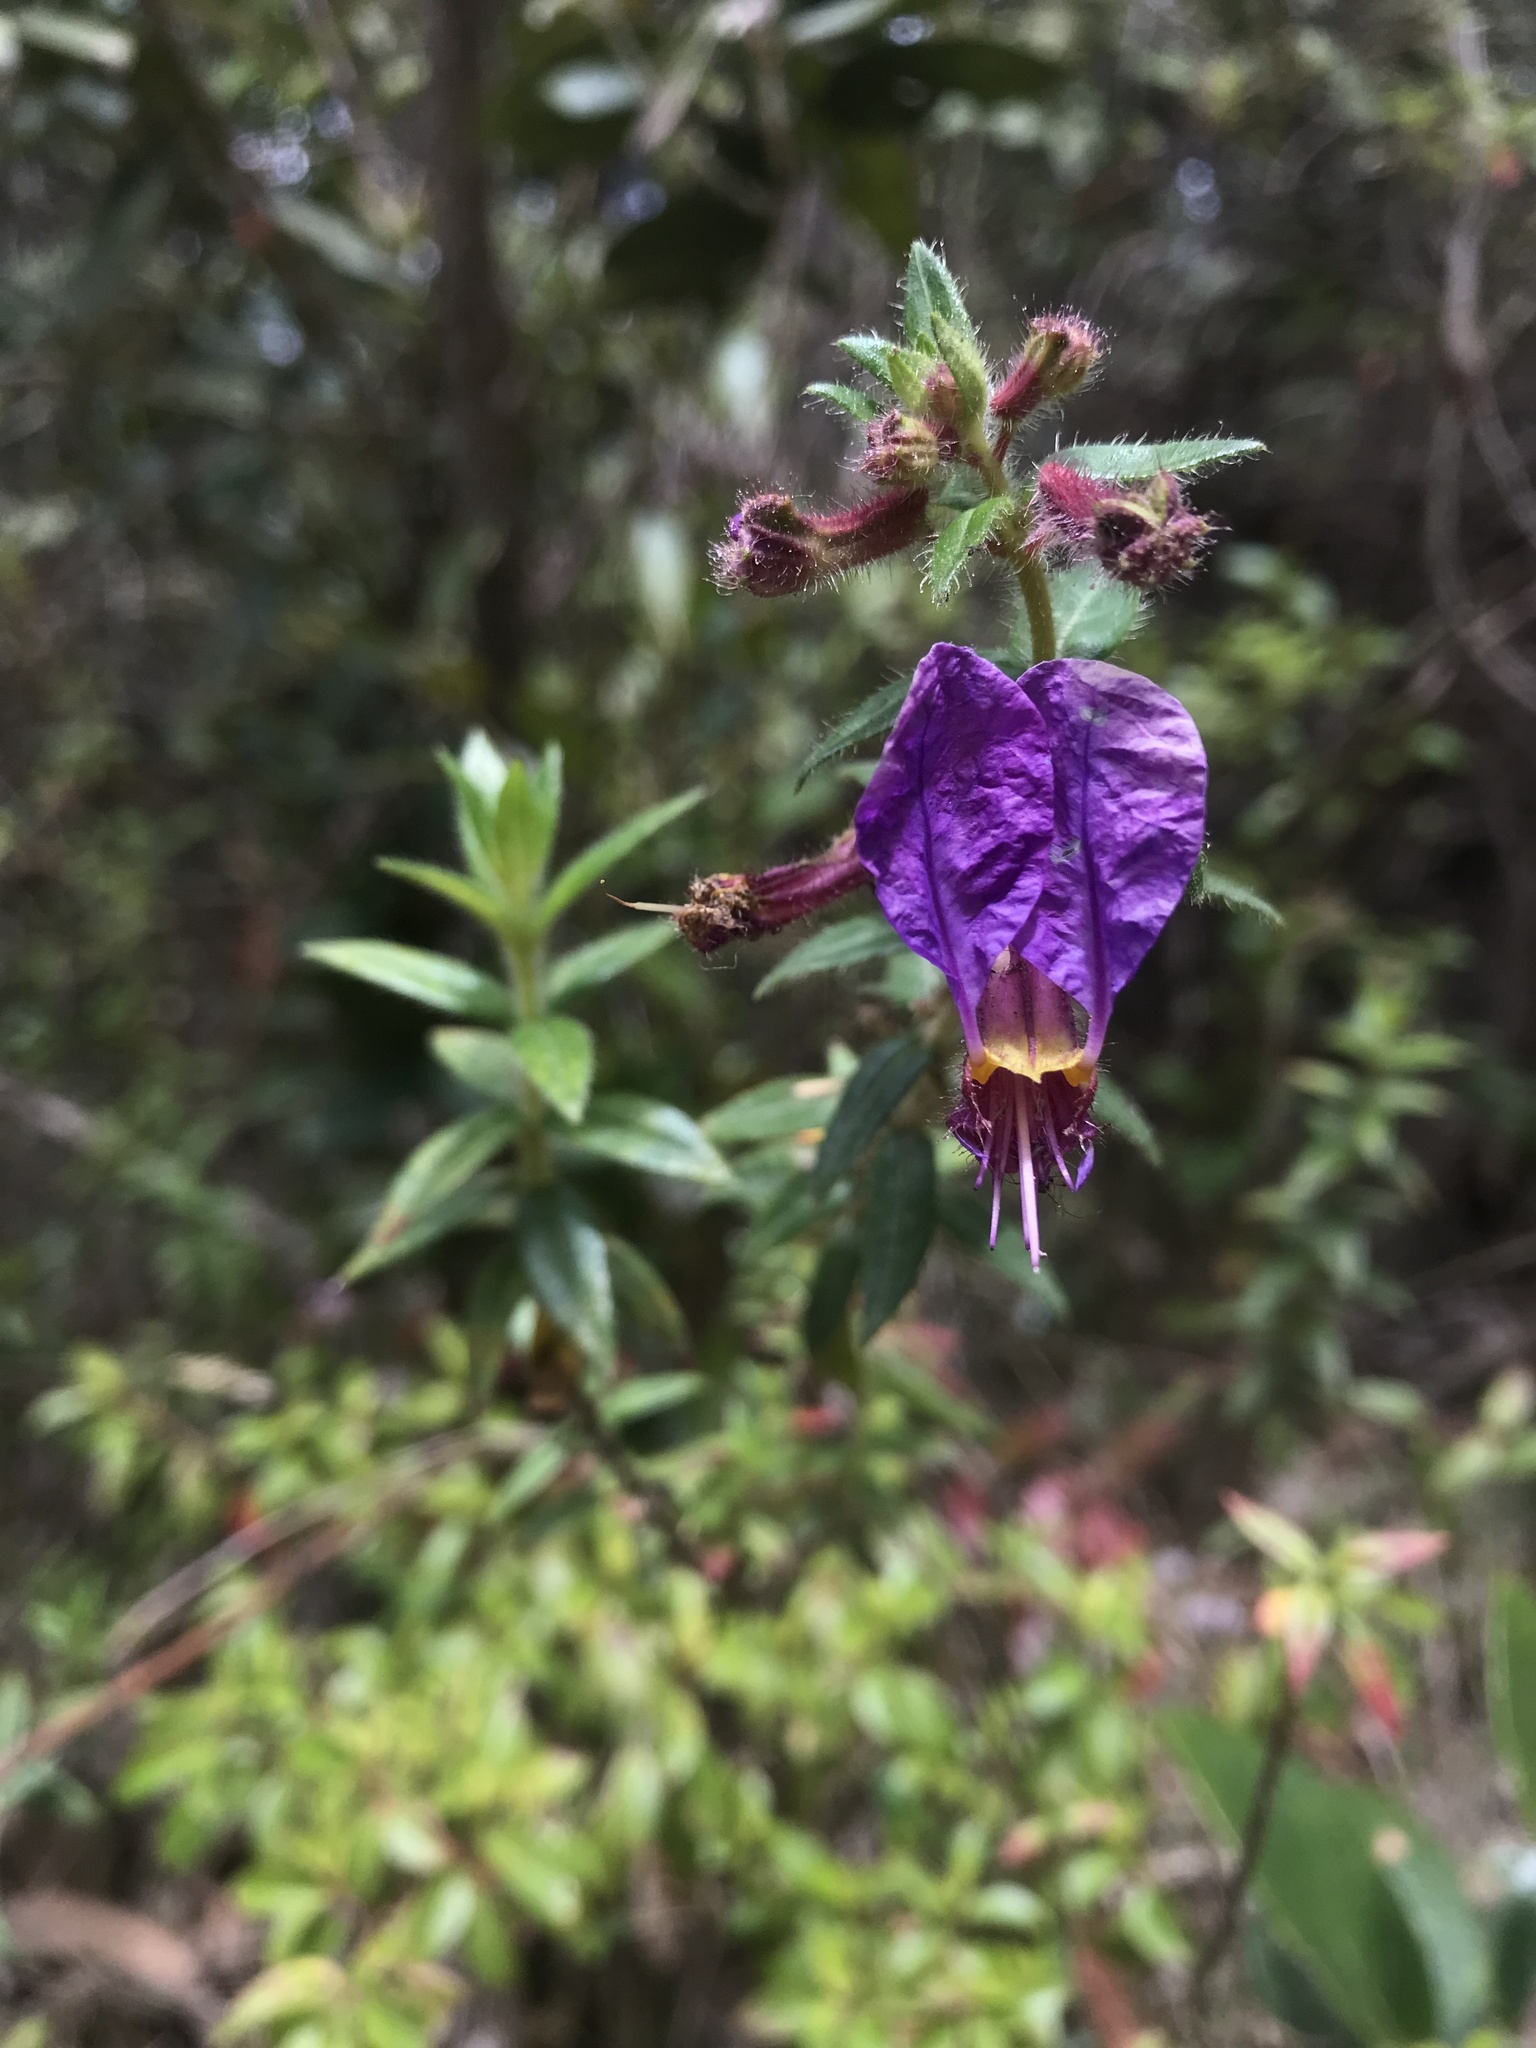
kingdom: Plantae
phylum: Tracheophyta
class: Magnoliopsida
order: Myrtales
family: Lythraceae
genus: Cuphea
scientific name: Cuphea dipetala
